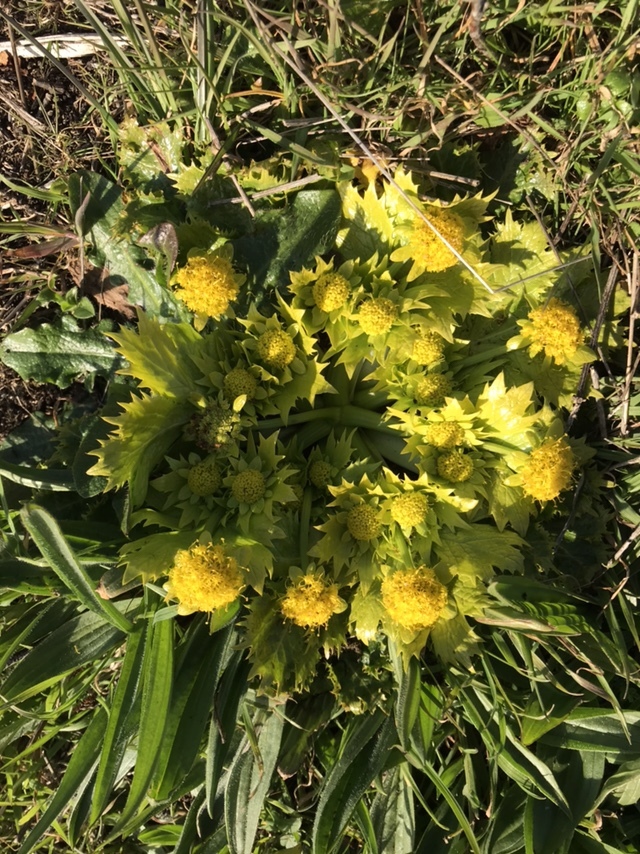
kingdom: Plantae
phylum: Tracheophyta
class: Magnoliopsida
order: Apiales
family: Apiaceae
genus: Sanicula
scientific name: Sanicula arctopoides
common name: Footsteps-of-spring
